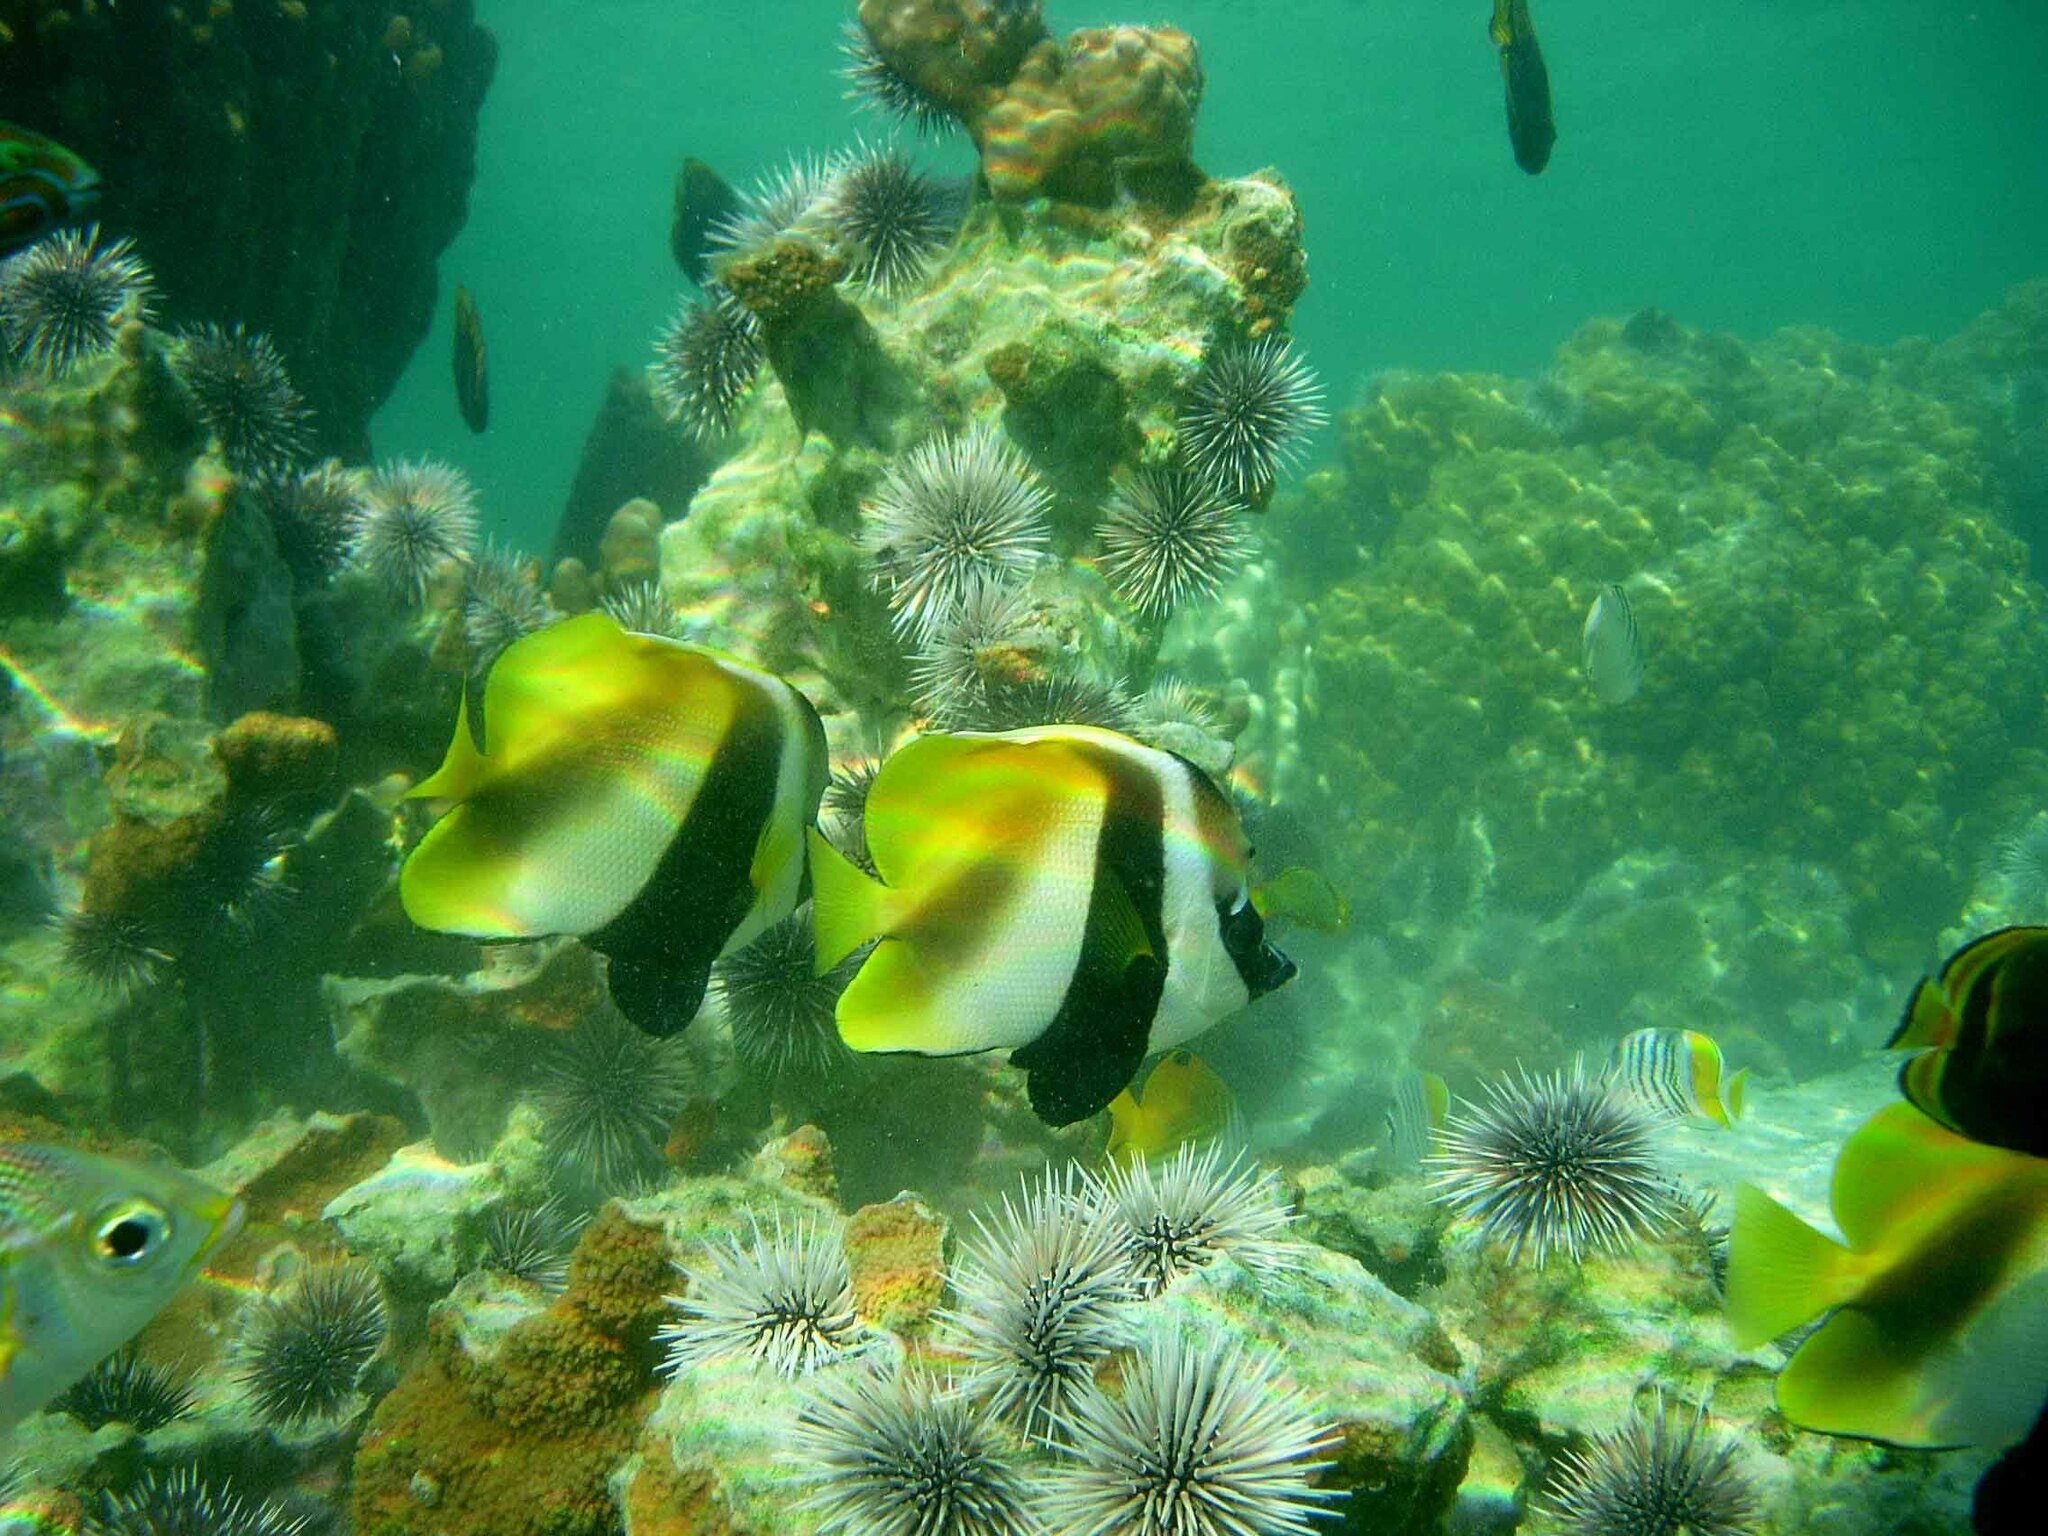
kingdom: Animalia
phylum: Chordata
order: Perciformes
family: Chaetodontidae
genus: Heniochus
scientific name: Heniochus monoceros
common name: Masked bannerfish
